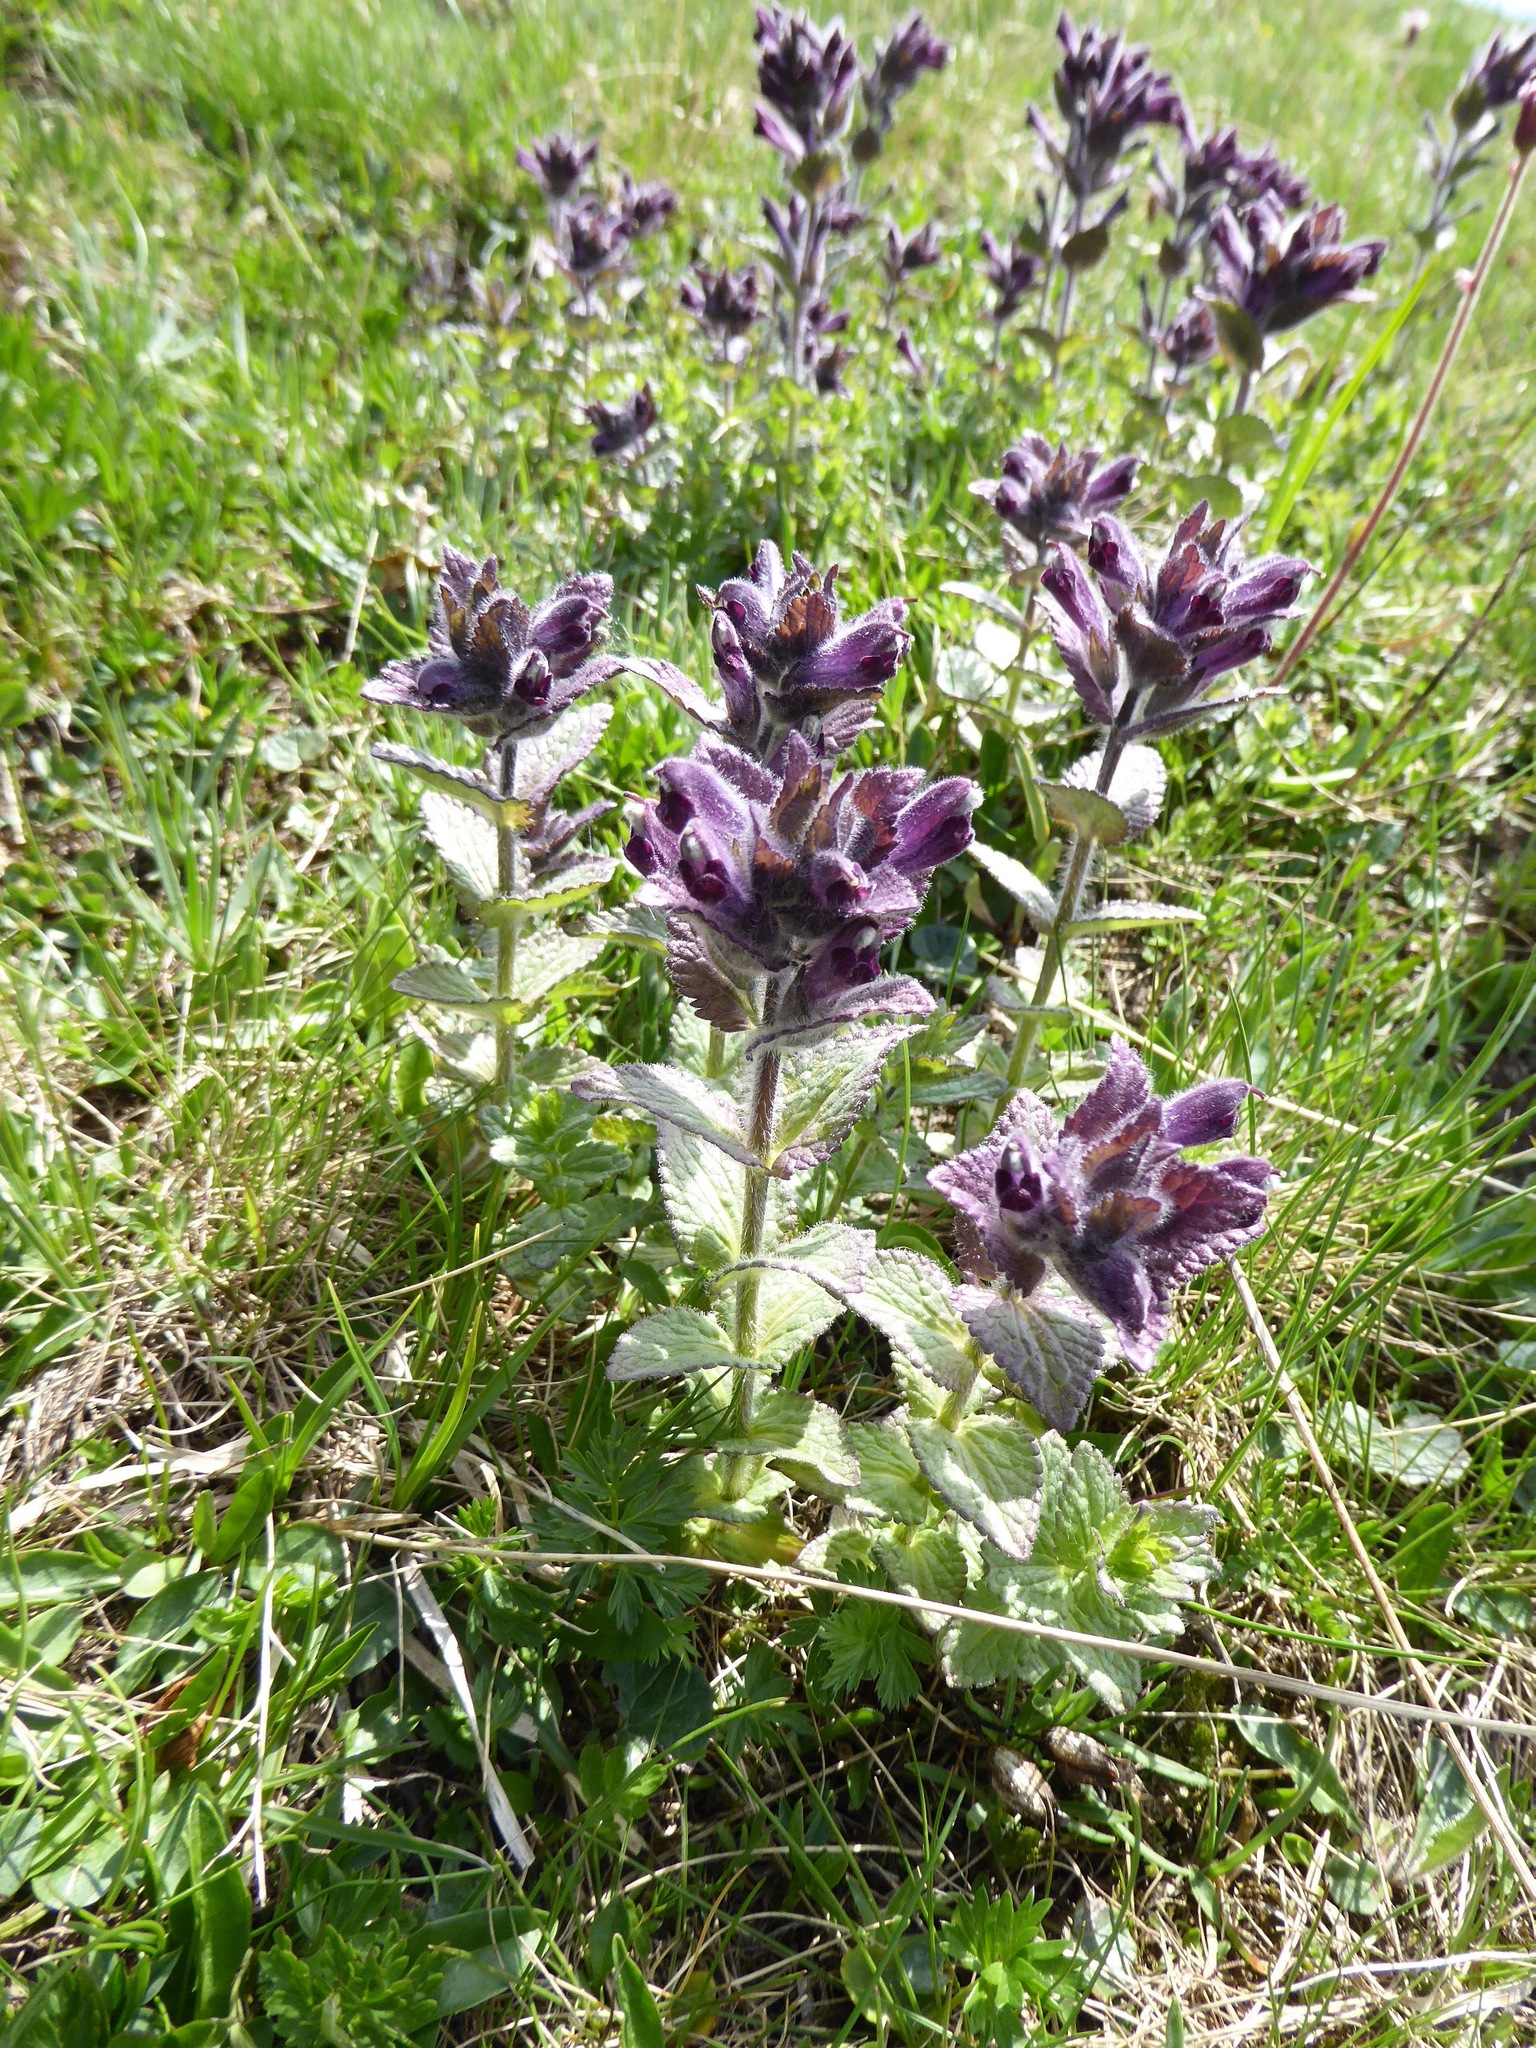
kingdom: Plantae
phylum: Tracheophyta
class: Magnoliopsida
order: Lamiales
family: Orobanchaceae
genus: Bartsia
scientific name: Bartsia alpina
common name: Alpine bartsia
